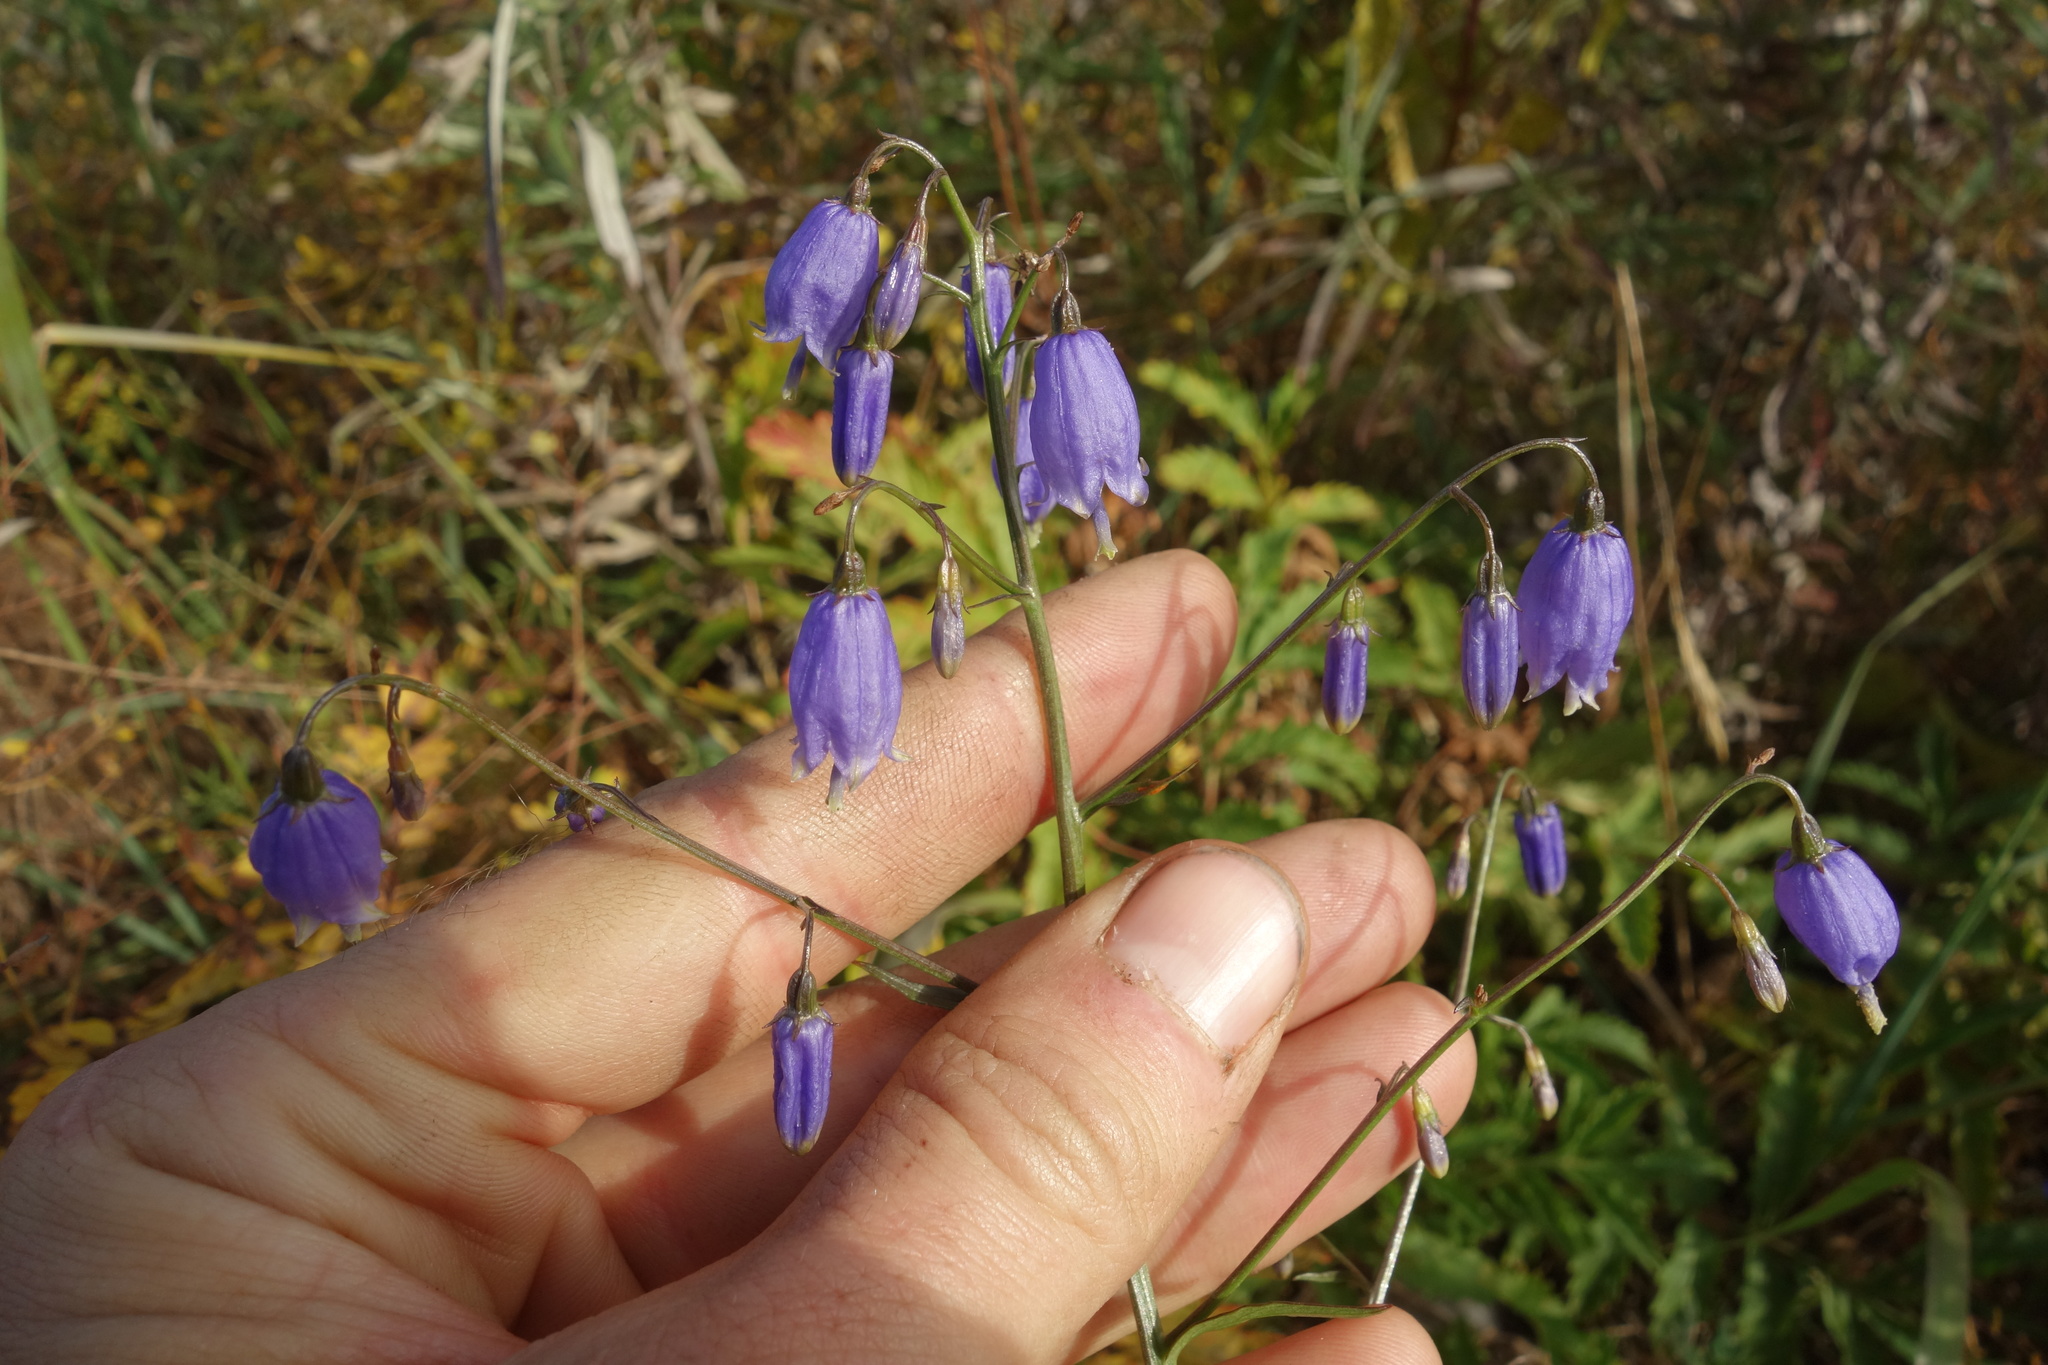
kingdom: Plantae
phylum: Tracheophyta
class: Magnoliopsida
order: Asterales
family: Campanulaceae
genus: Adenophora
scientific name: Adenophora stenanthina
